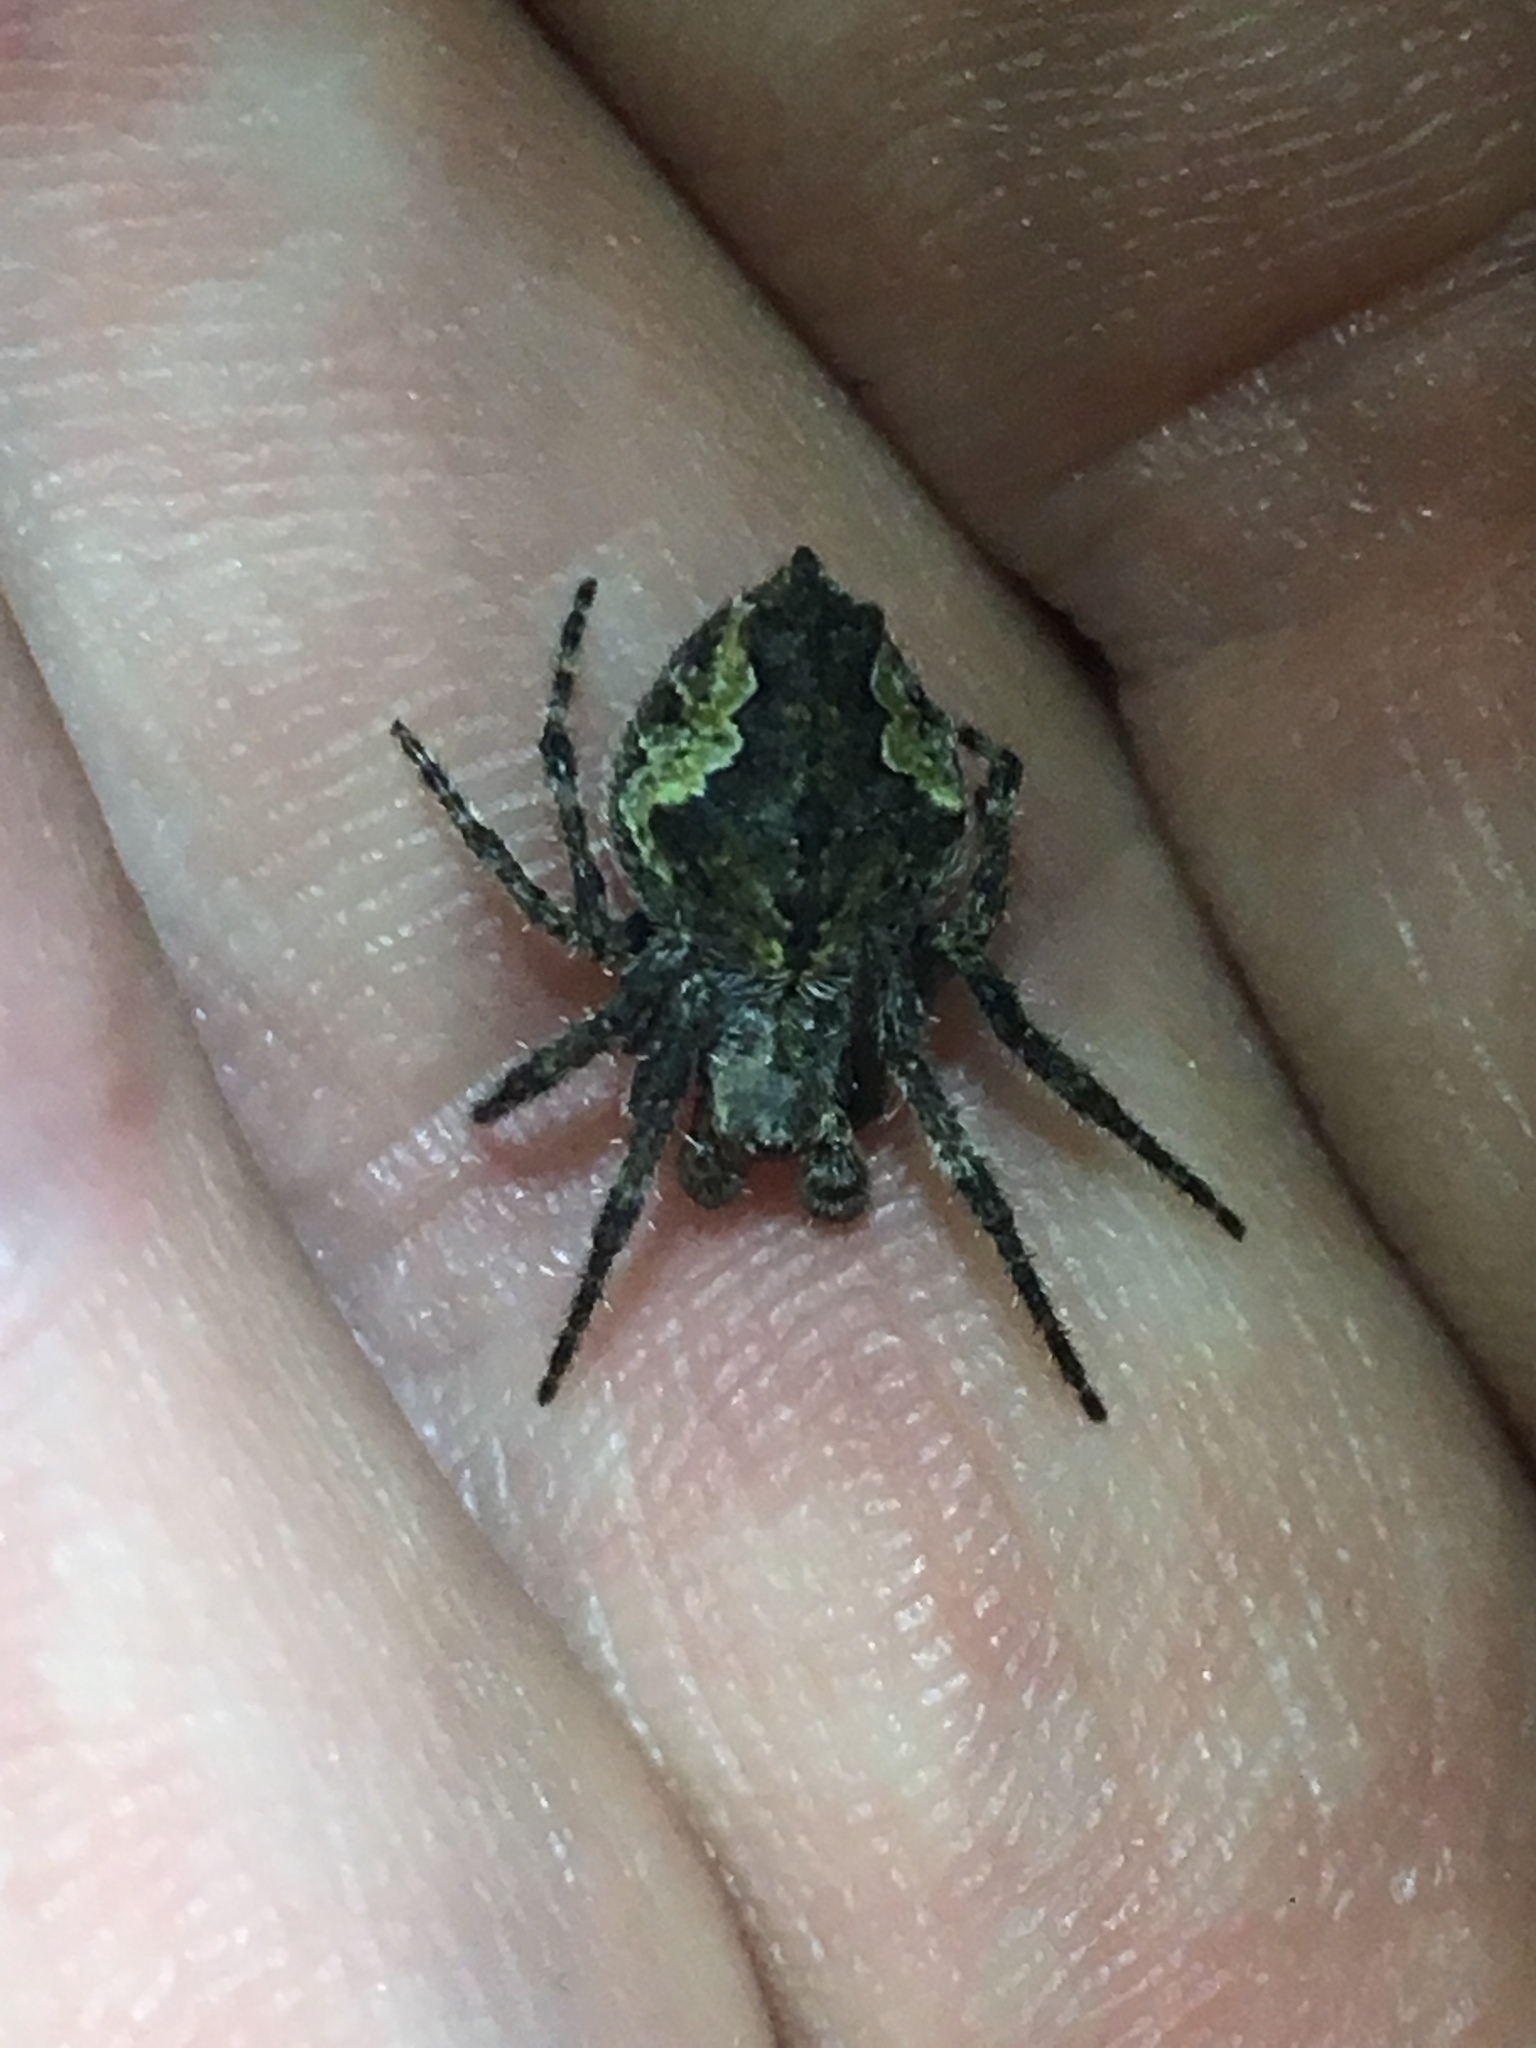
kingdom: Animalia
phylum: Arthropoda
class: Arachnida
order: Araneae
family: Araneidae
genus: Eriophora
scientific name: Eriophora pustulosa
